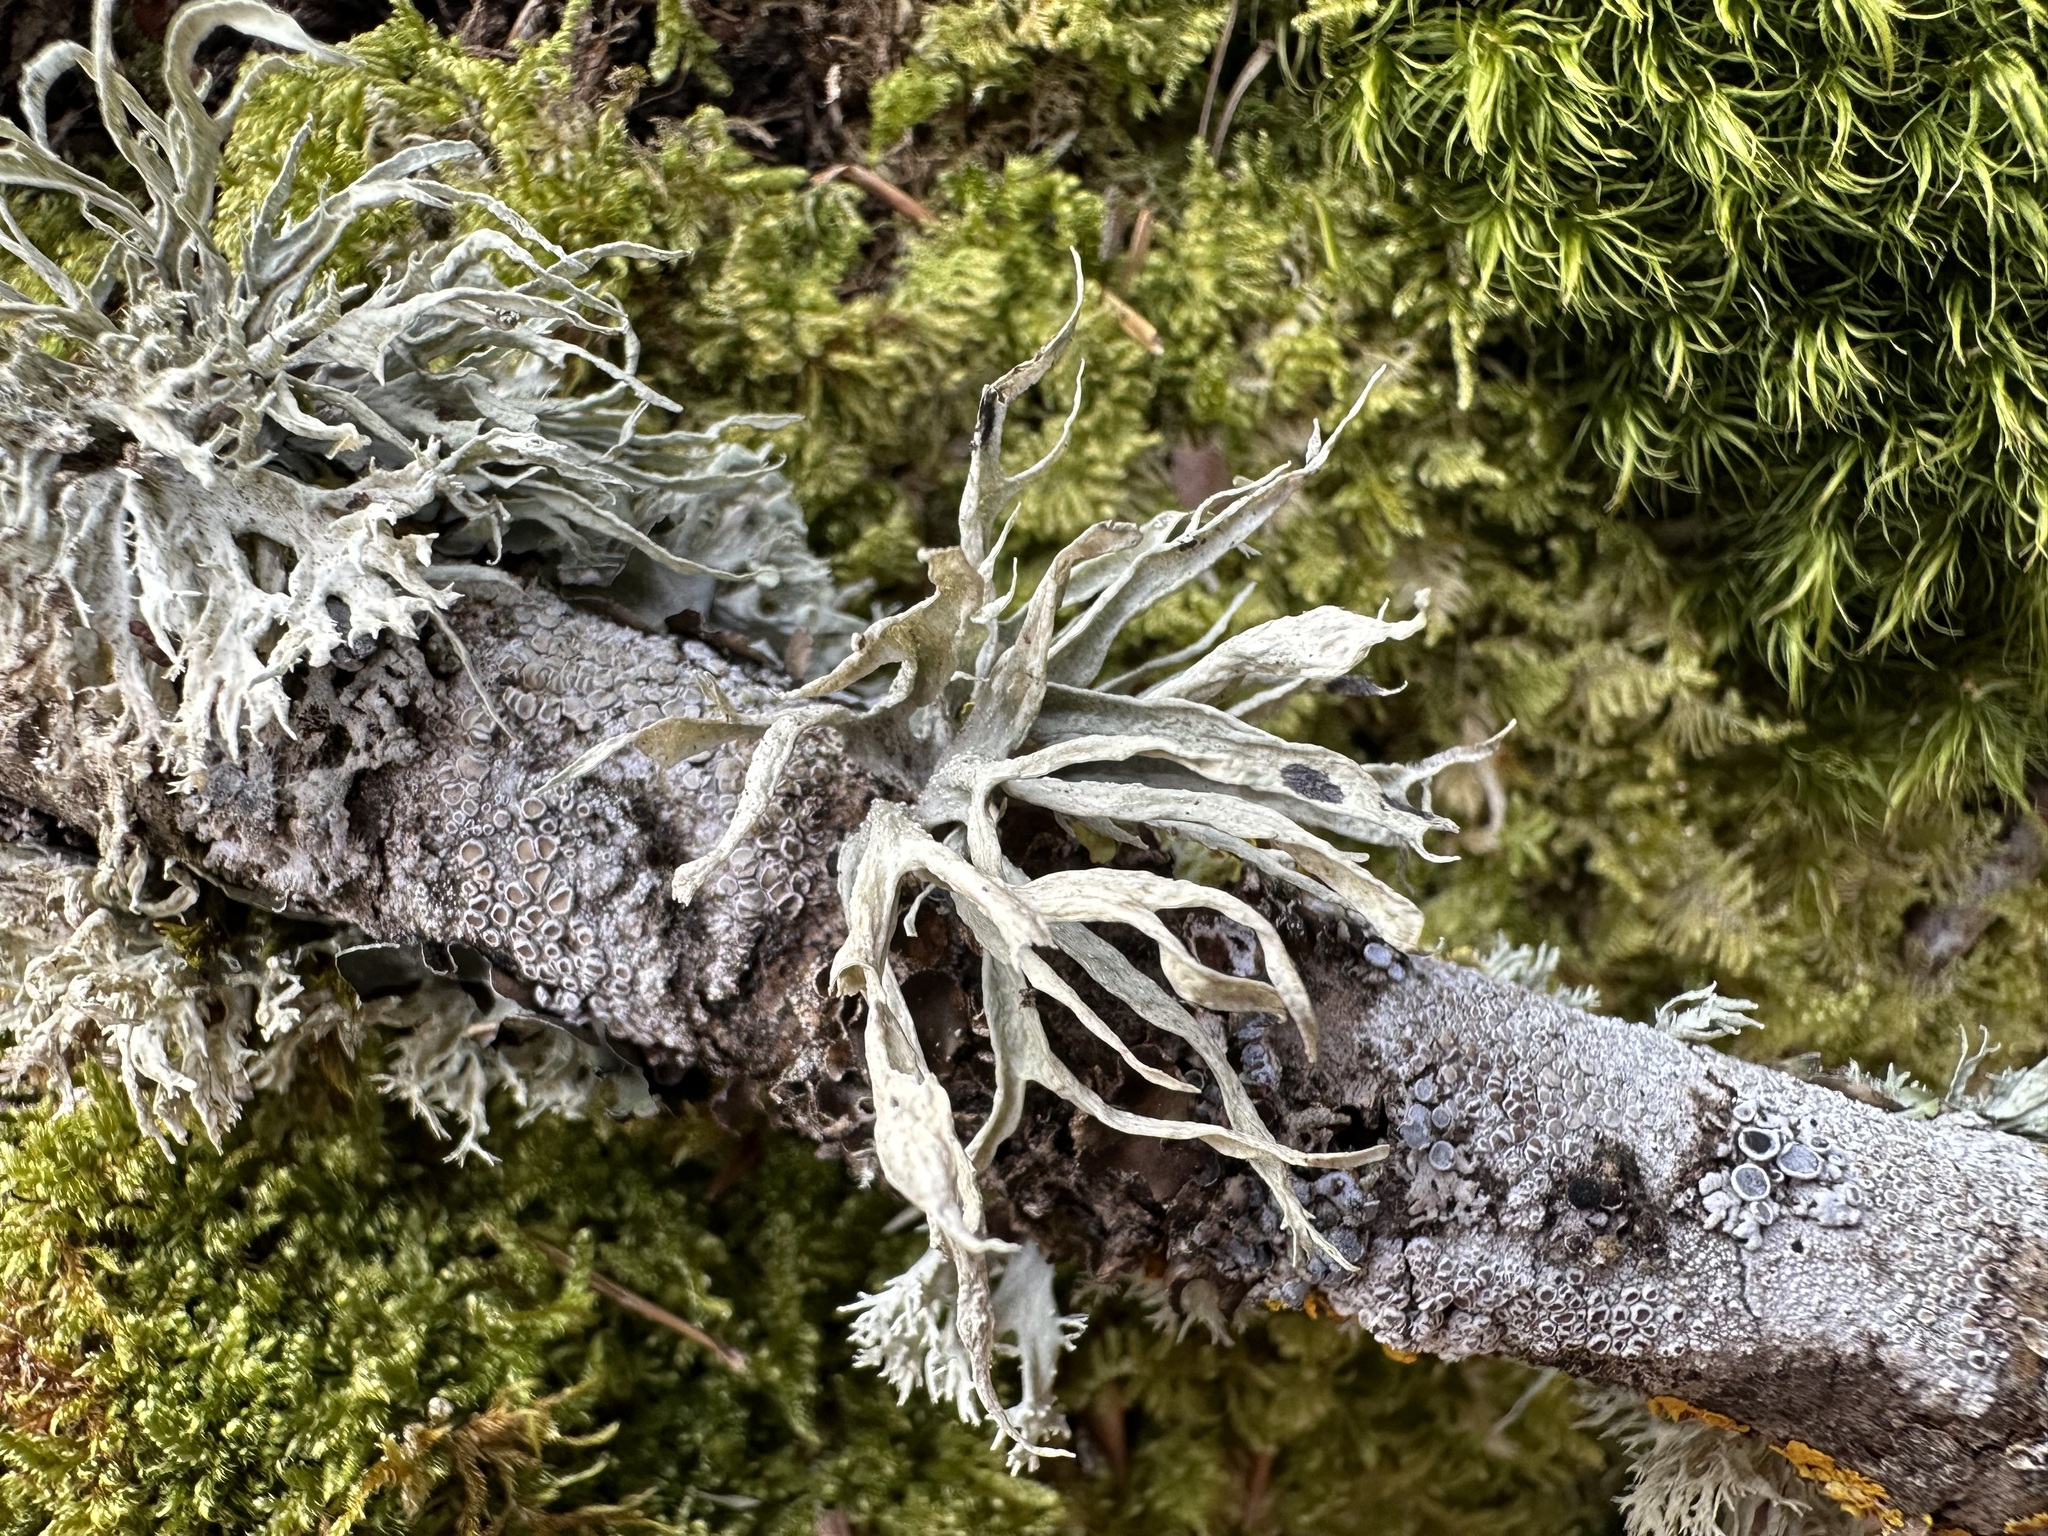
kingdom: Fungi
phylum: Ascomycota
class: Lecanoromycetes
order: Lecanorales
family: Ramalinaceae
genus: Ramalina
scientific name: Ramalina fraxinea
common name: Cartilage lichen
